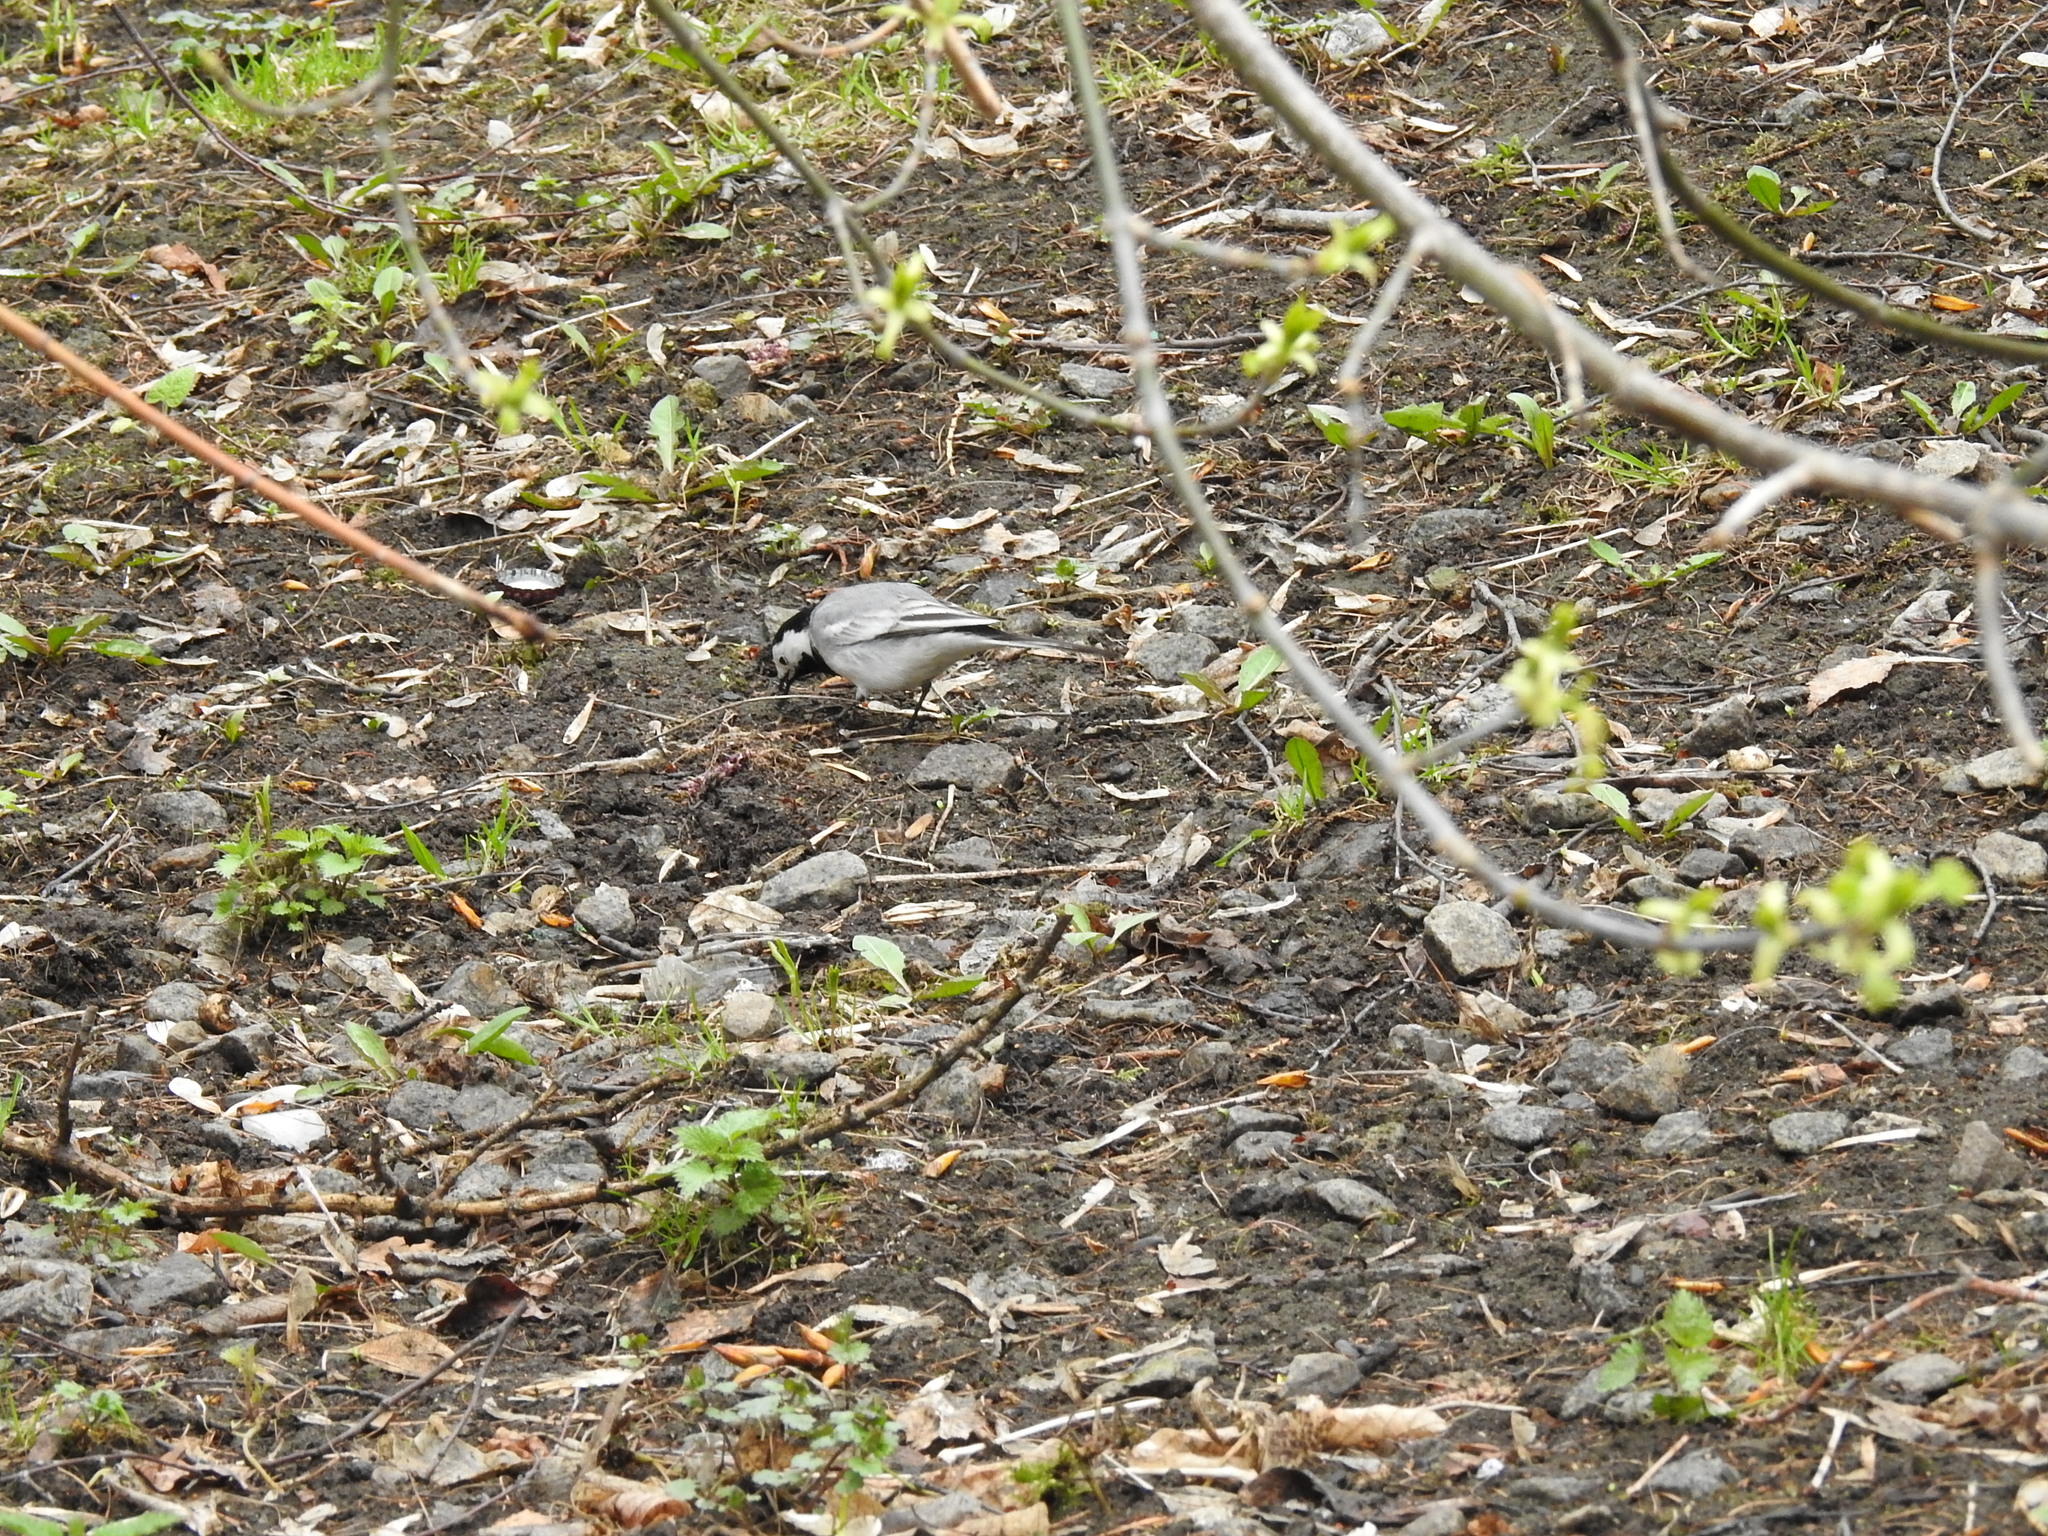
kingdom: Animalia
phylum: Chordata
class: Aves
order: Passeriformes
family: Motacillidae
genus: Motacilla
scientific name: Motacilla alba
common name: White wagtail
